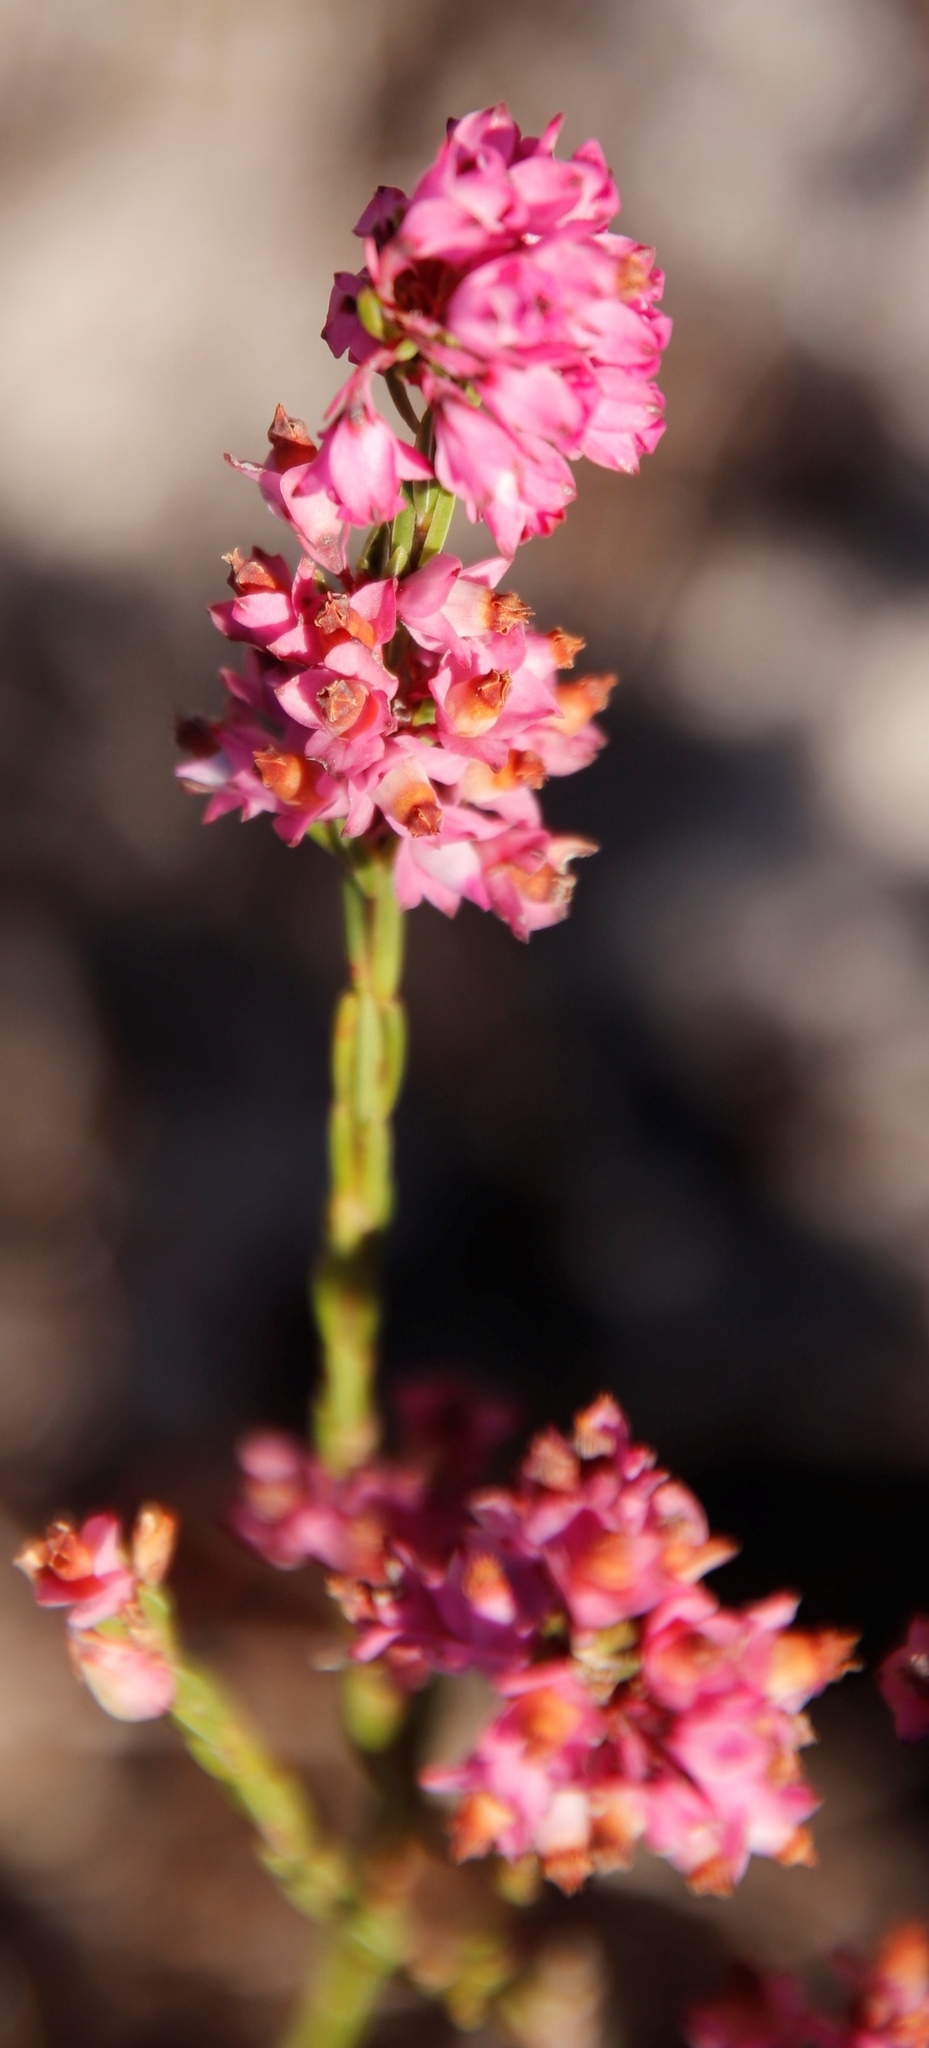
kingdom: Plantae
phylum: Tracheophyta
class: Magnoliopsida
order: Ericales
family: Ericaceae
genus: Erica
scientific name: Erica corifolia
